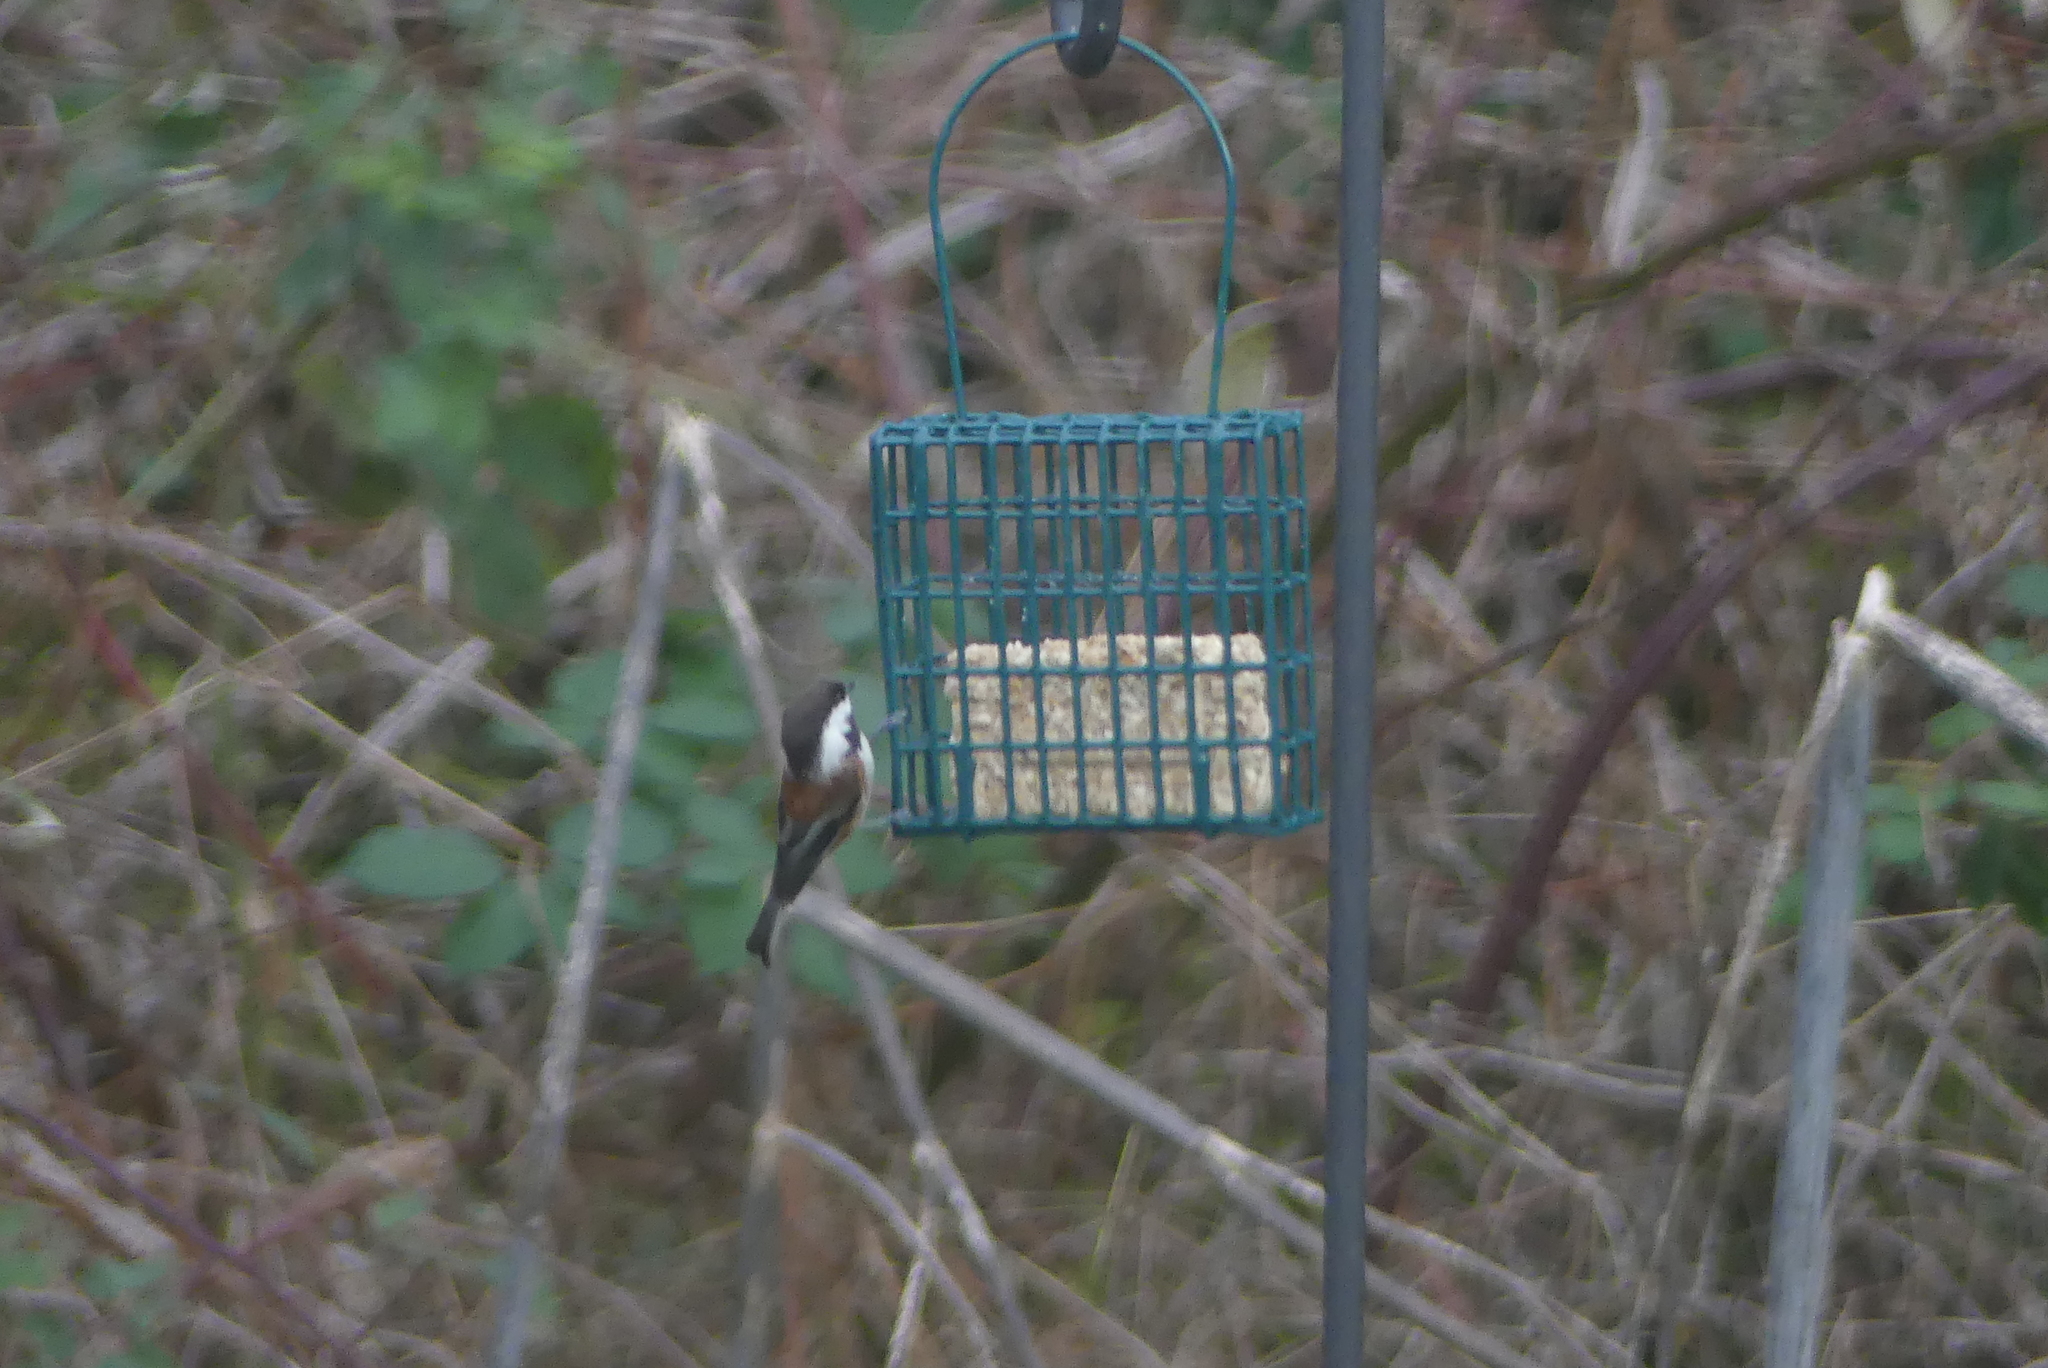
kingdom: Animalia
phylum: Chordata
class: Aves
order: Passeriformes
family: Paridae
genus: Poecile
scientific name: Poecile rufescens
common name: Chestnut-backed chickadee
